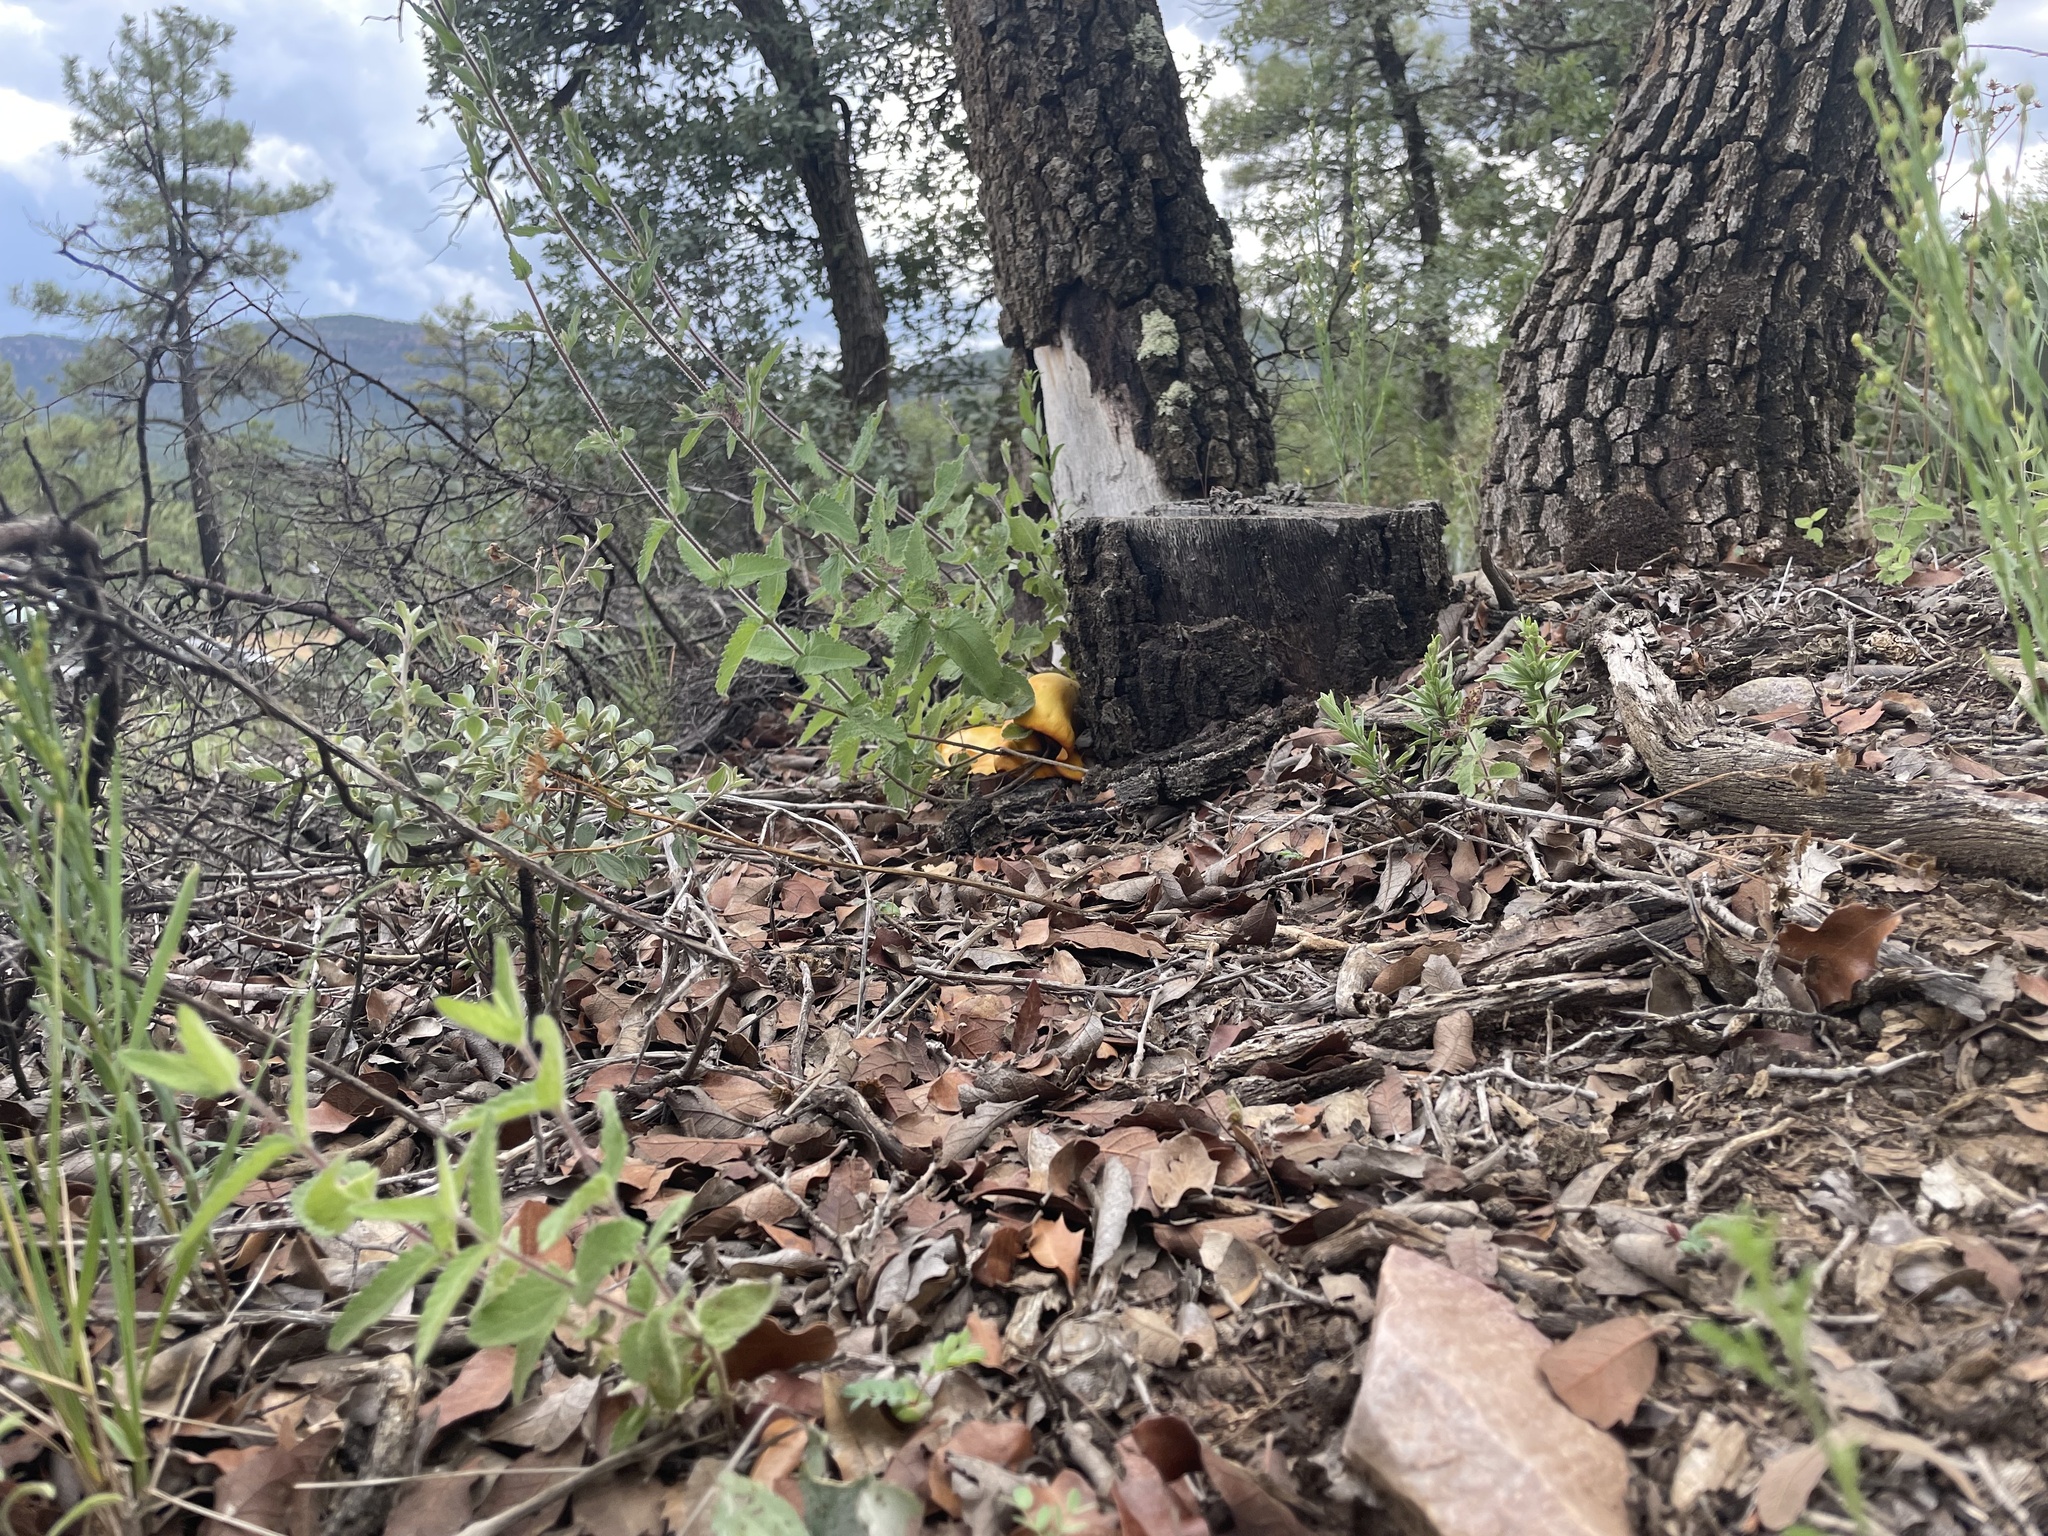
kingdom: Fungi
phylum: Basidiomycota
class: Agaricomycetes
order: Agaricales
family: Omphalotaceae
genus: Omphalotus
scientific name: Omphalotus subilludens
